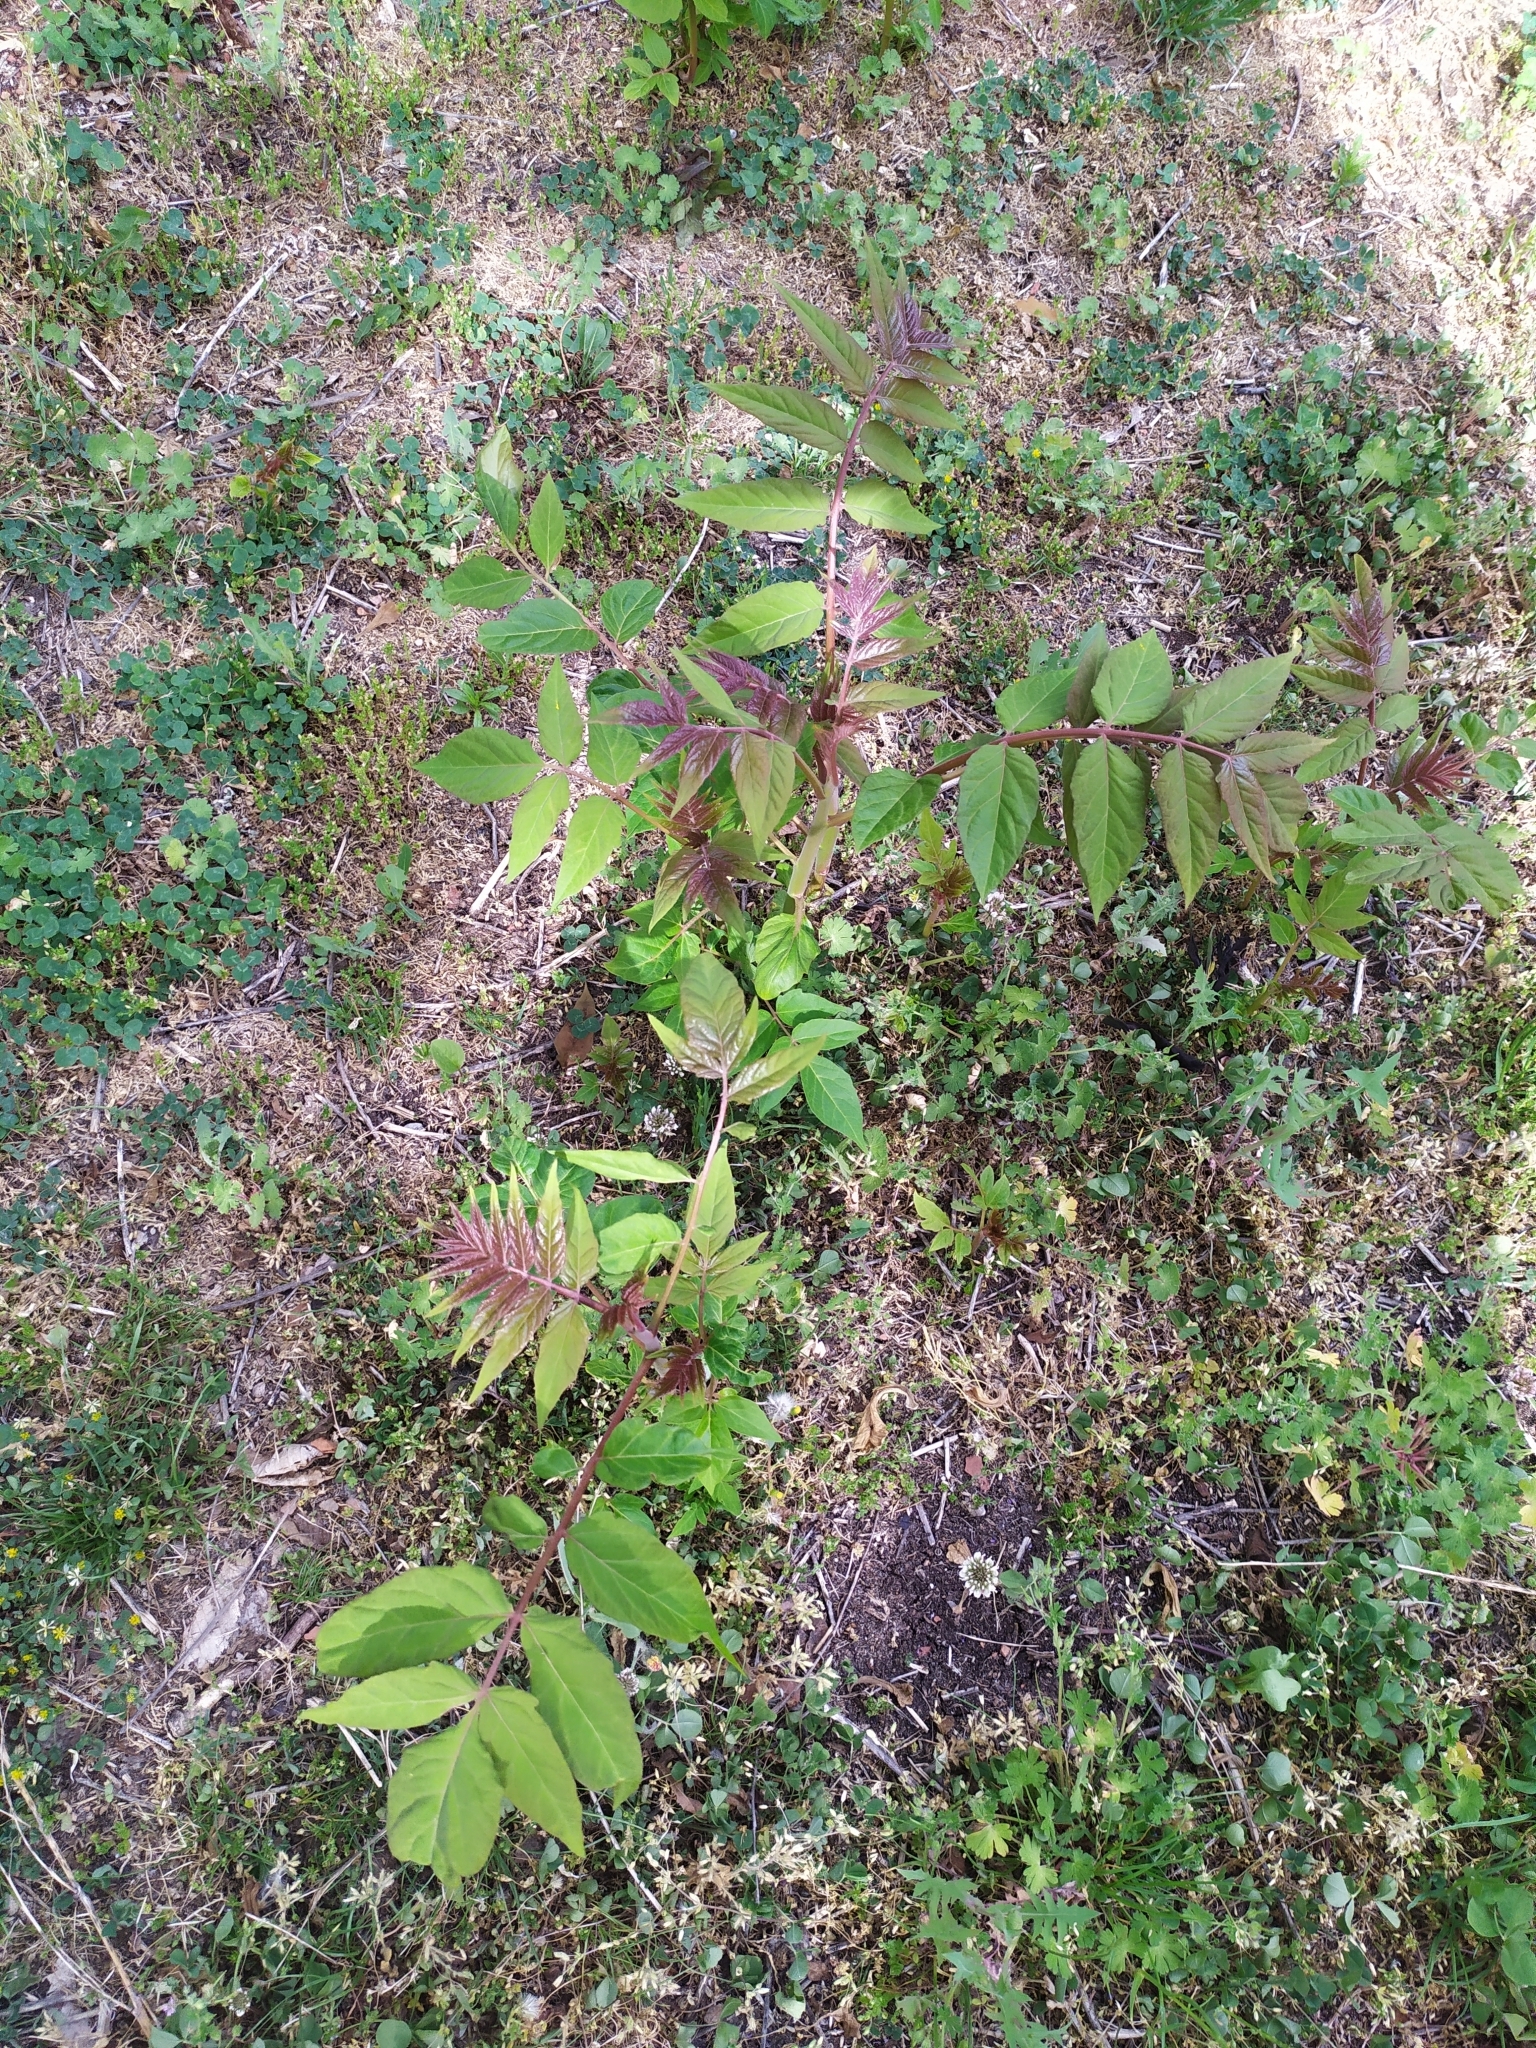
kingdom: Plantae
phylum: Tracheophyta
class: Magnoliopsida
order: Sapindales
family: Simaroubaceae
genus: Ailanthus
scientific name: Ailanthus altissima
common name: Tree-of-heaven
